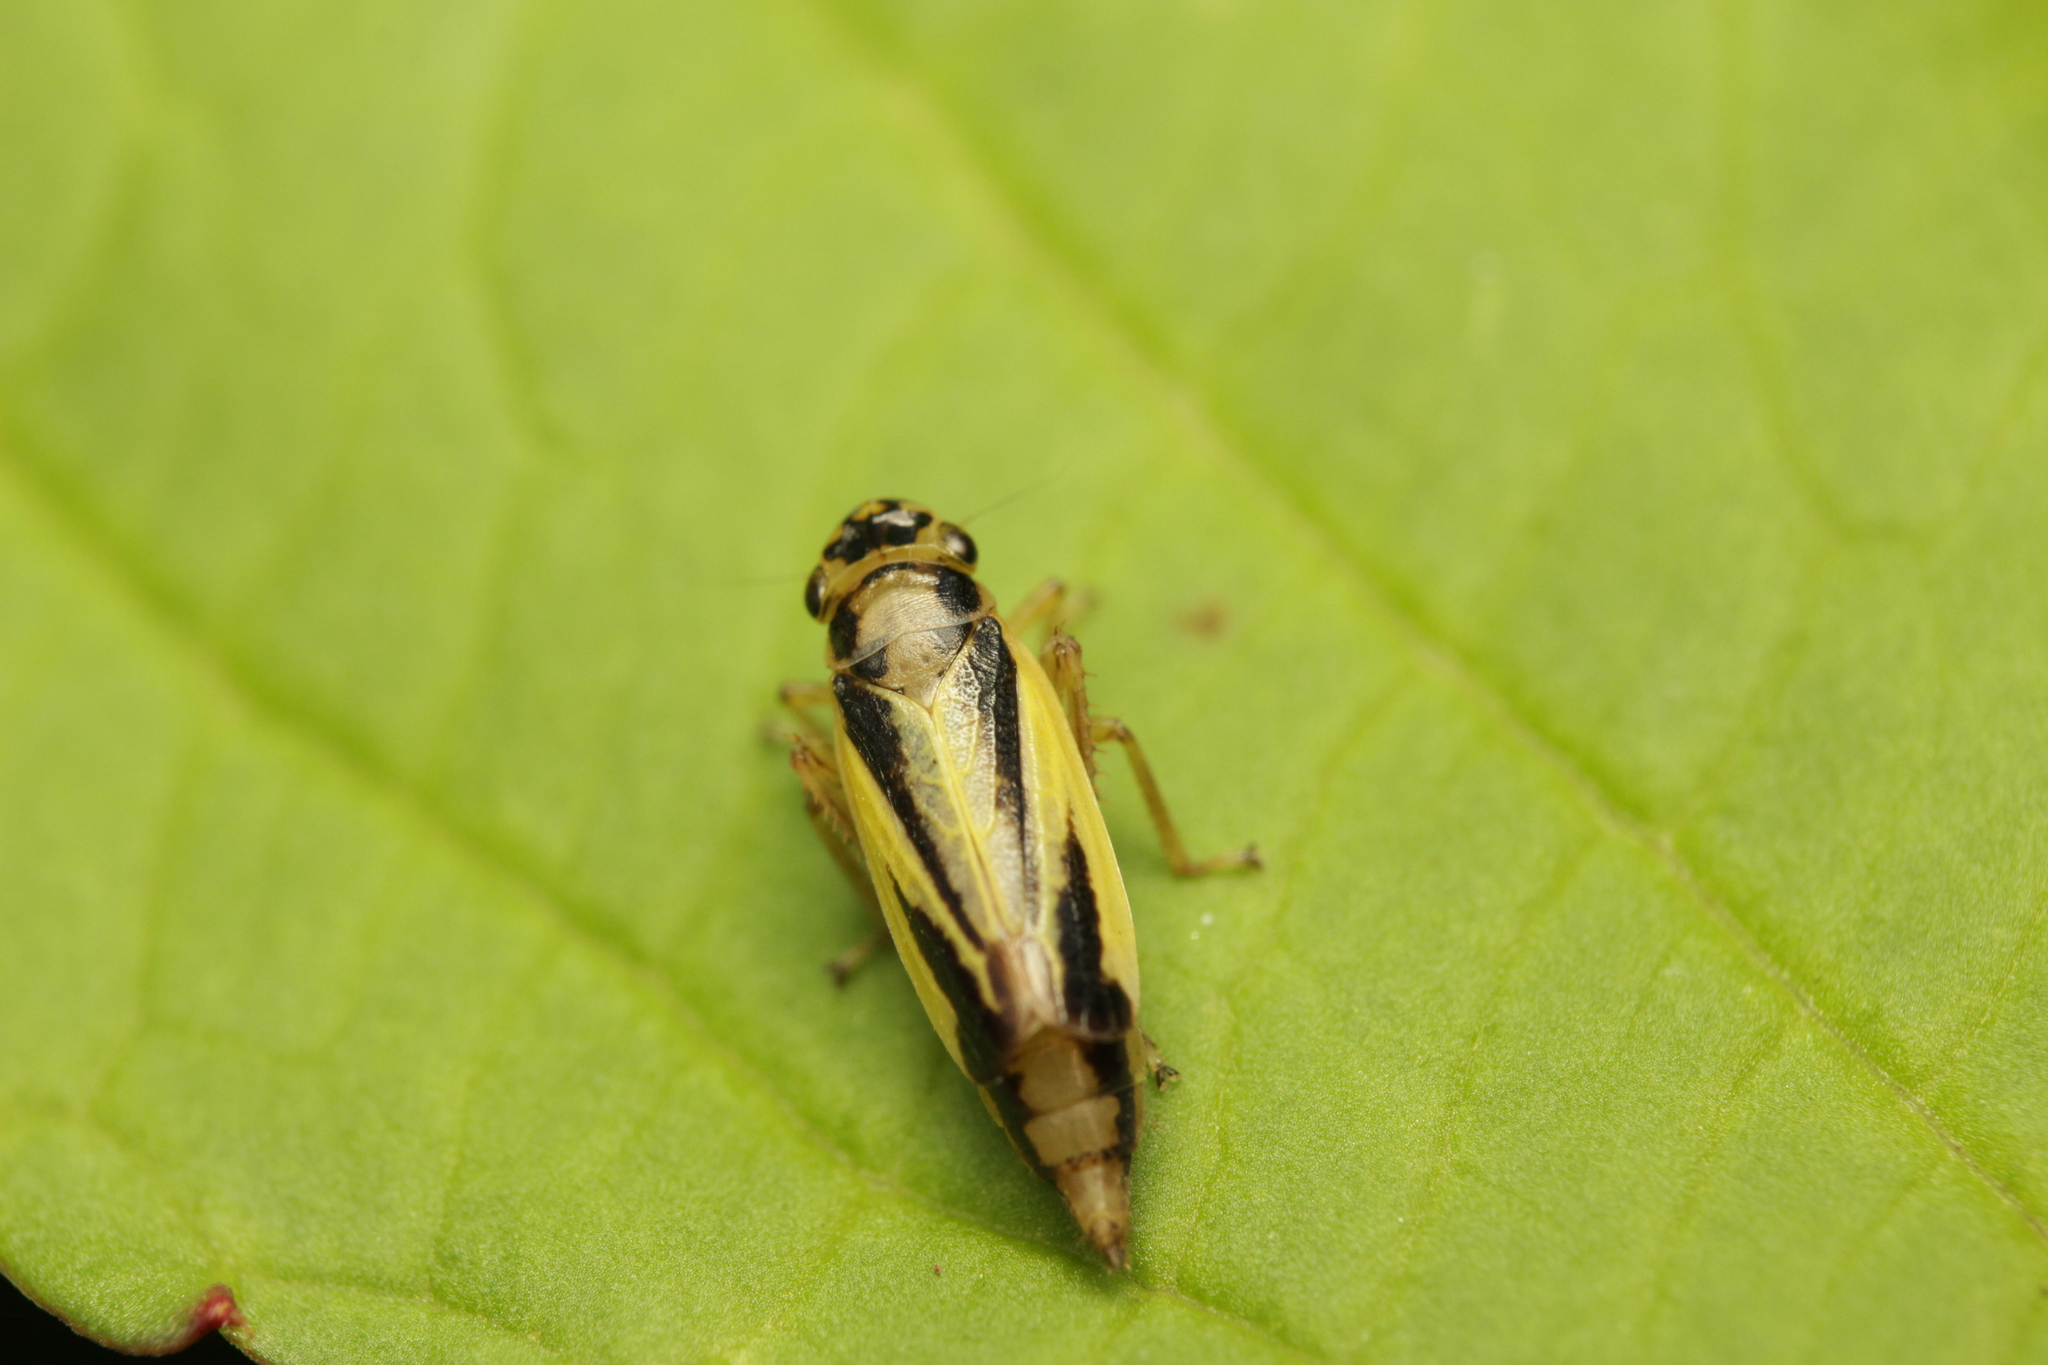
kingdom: Animalia
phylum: Arthropoda
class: Insecta
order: Hemiptera
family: Cicadellidae
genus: Evacanthus
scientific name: Evacanthus interruptus
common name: Leafhopper
